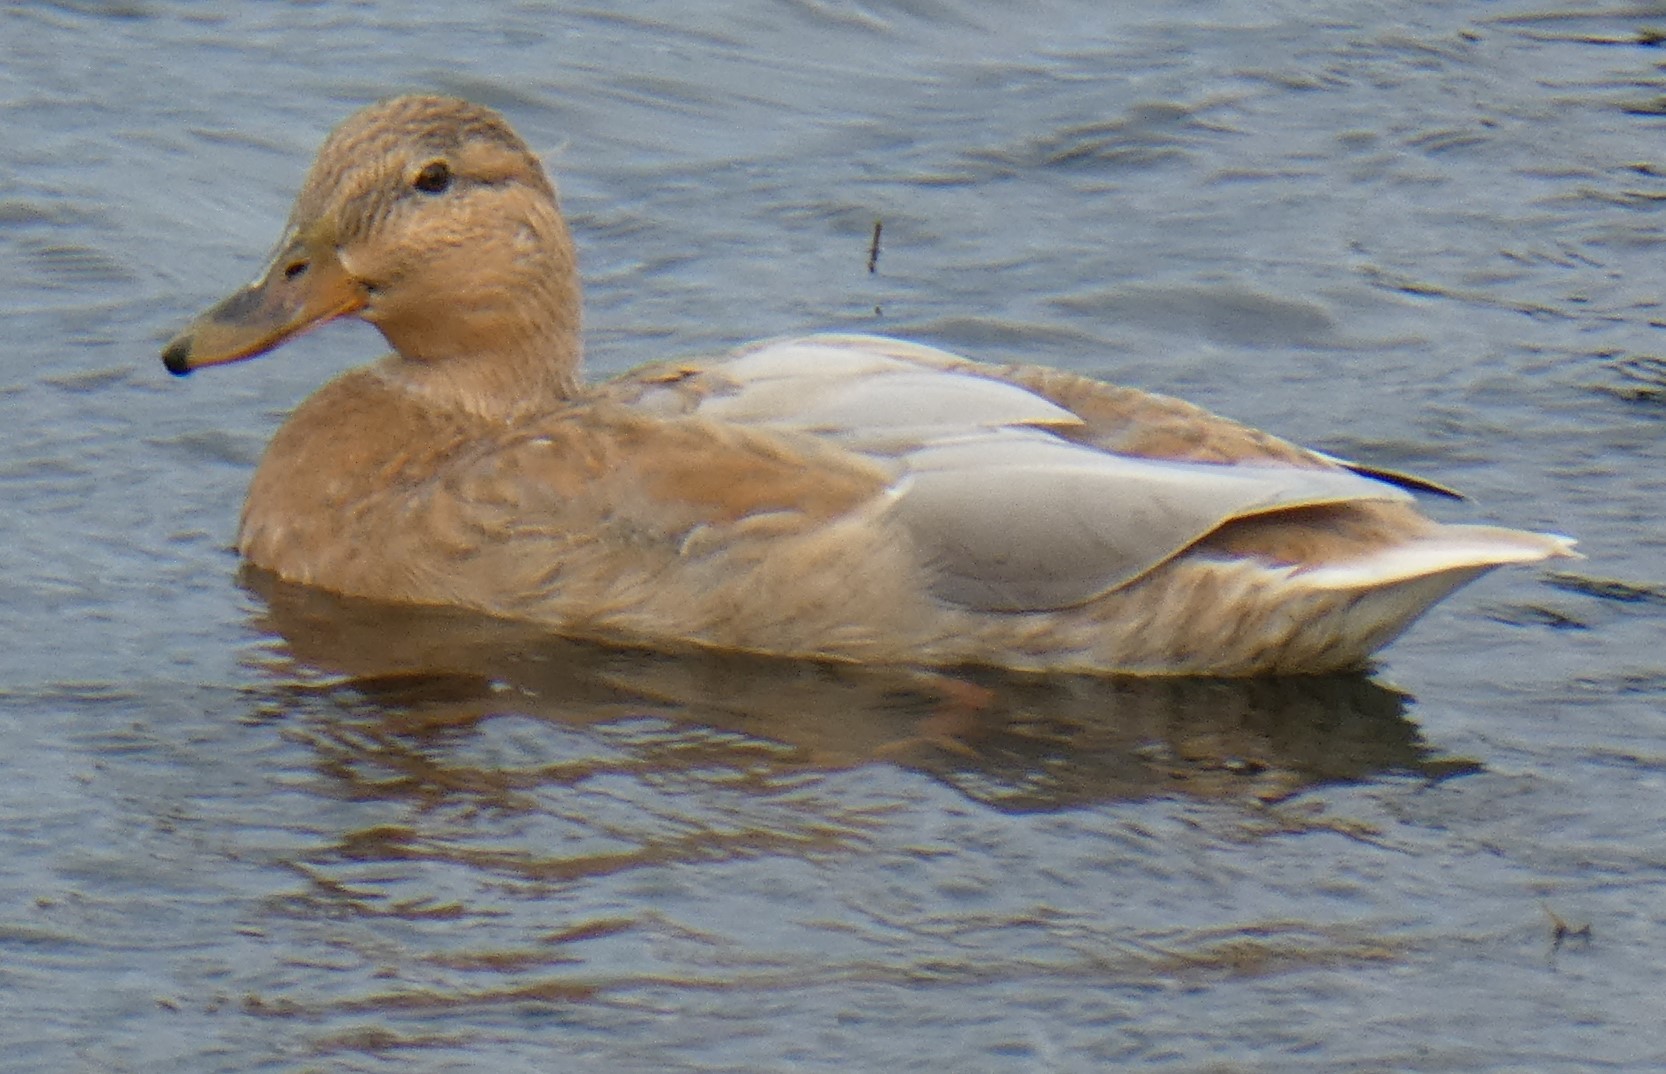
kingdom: Animalia
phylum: Chordata
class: Aves
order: Anseriformes
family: Anatidae
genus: Anas
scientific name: Anas platyrhynchos
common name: Mallard
